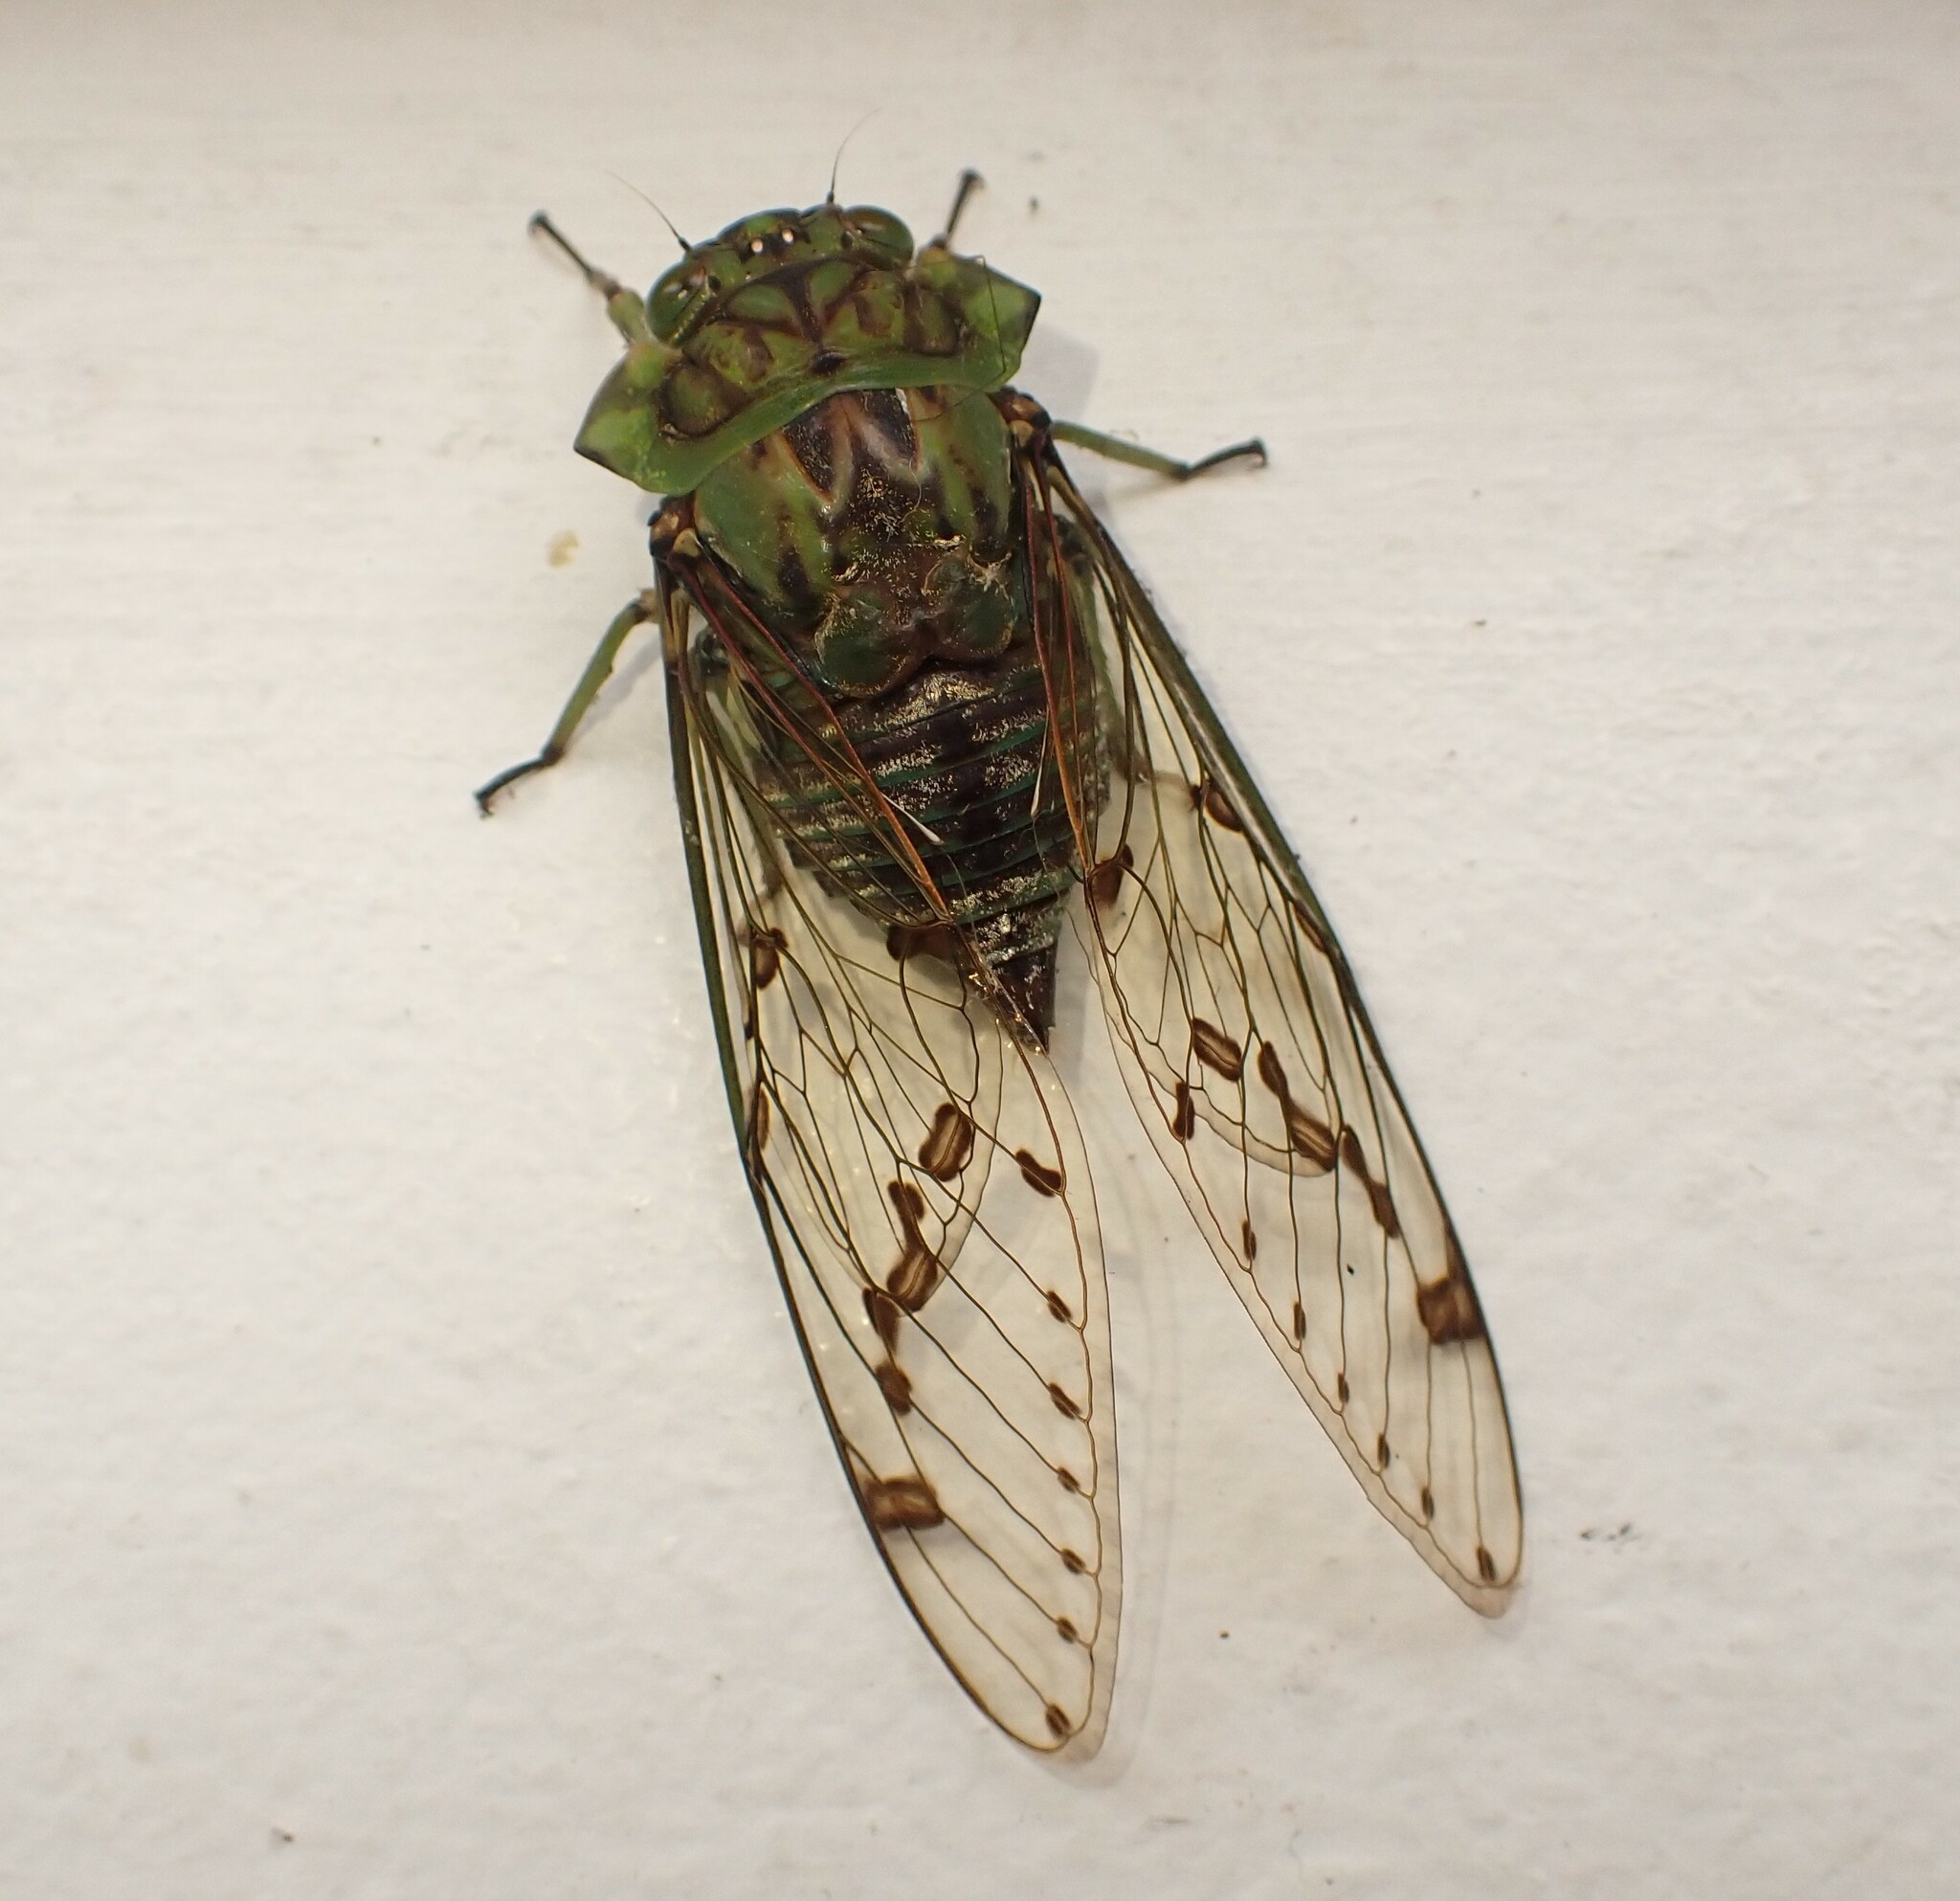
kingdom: Animalia
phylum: Arthropoda
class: Insecta
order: Hemiptera
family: Cicadidae
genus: Zammara
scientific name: Zammara tympanum
